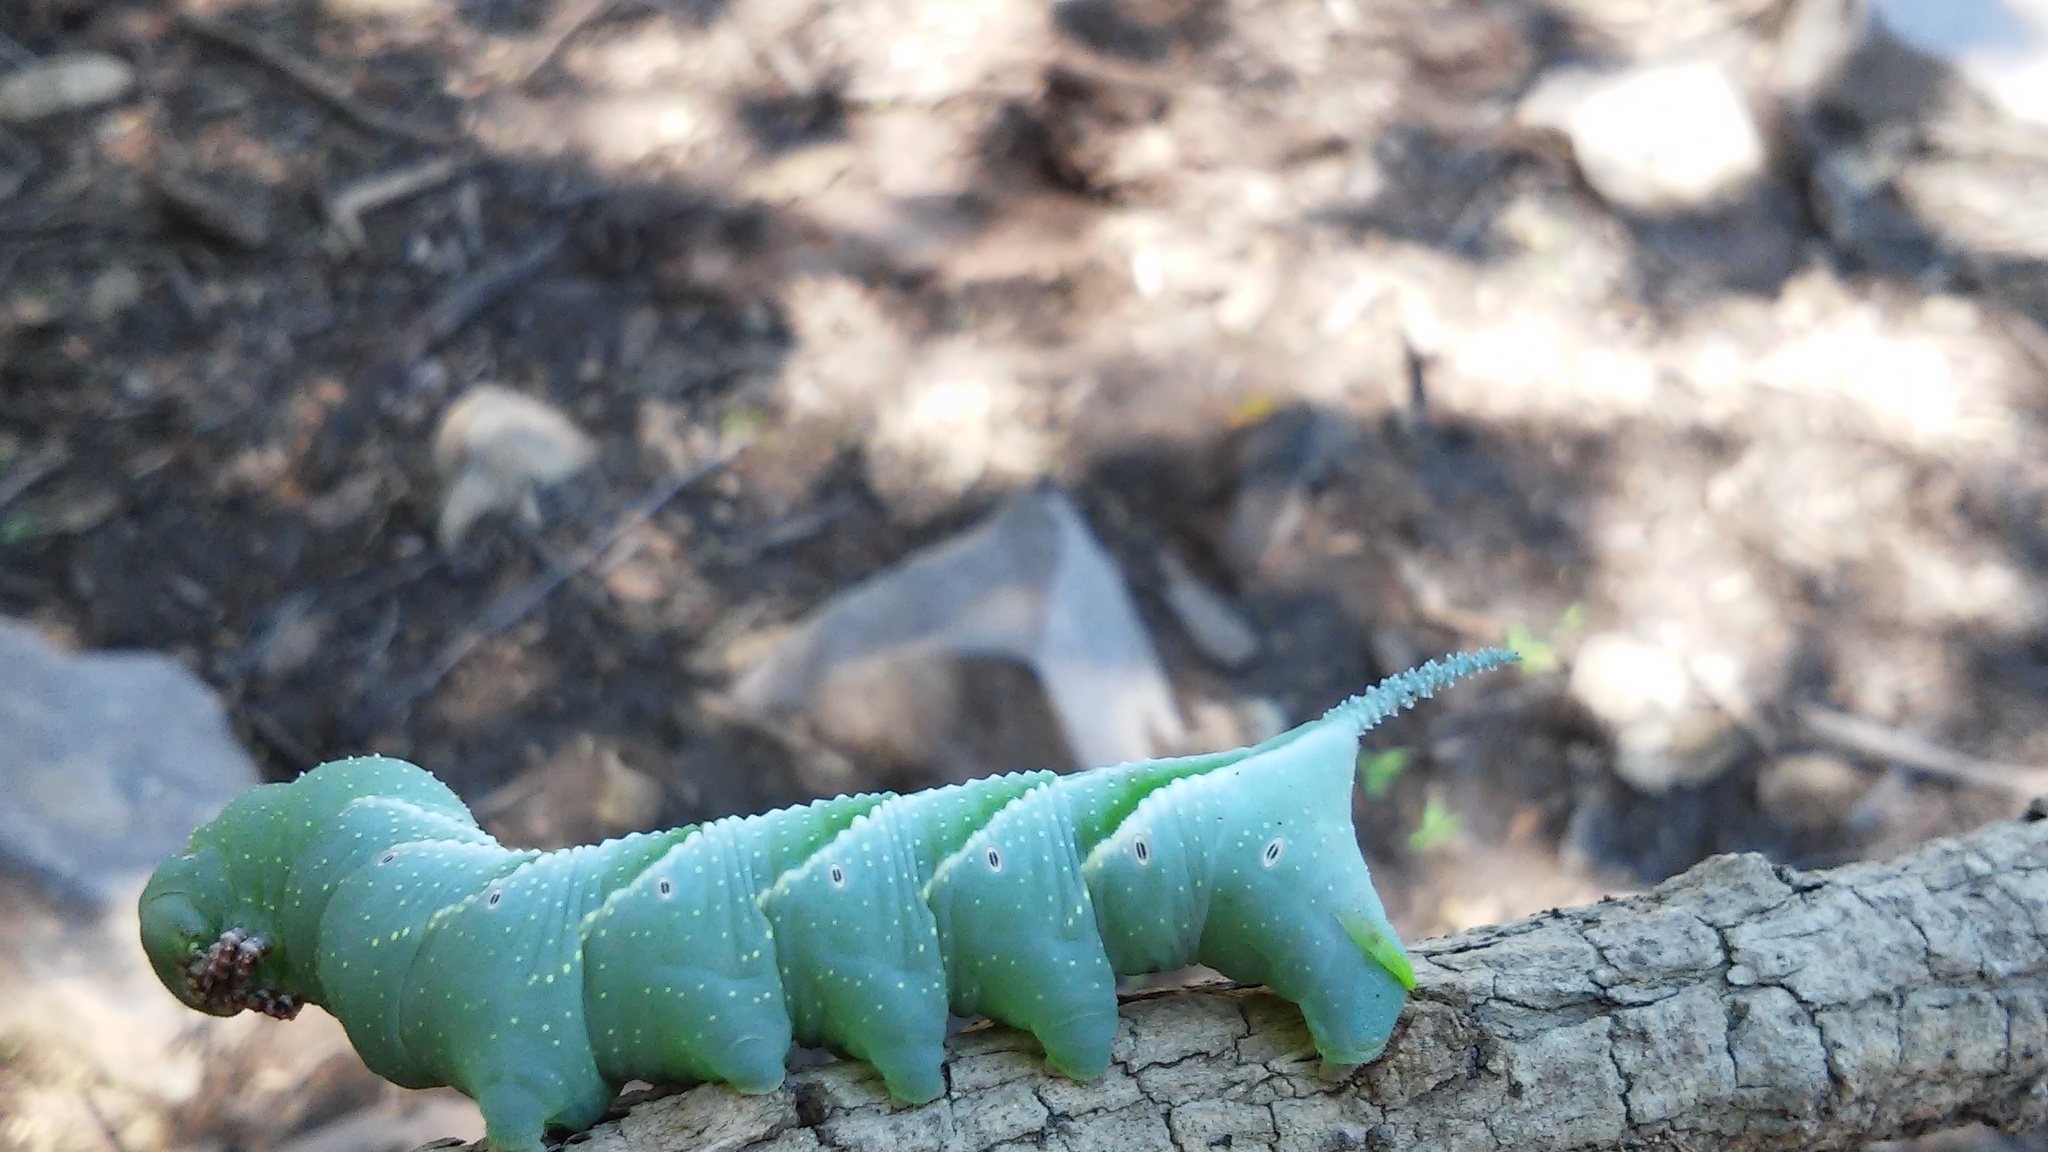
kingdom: Animalia
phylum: Arthropoda
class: Insecta
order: Lepidoptera
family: Sphingidae
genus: Manduca
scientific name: Manduca sexta
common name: Carolina sphinx
